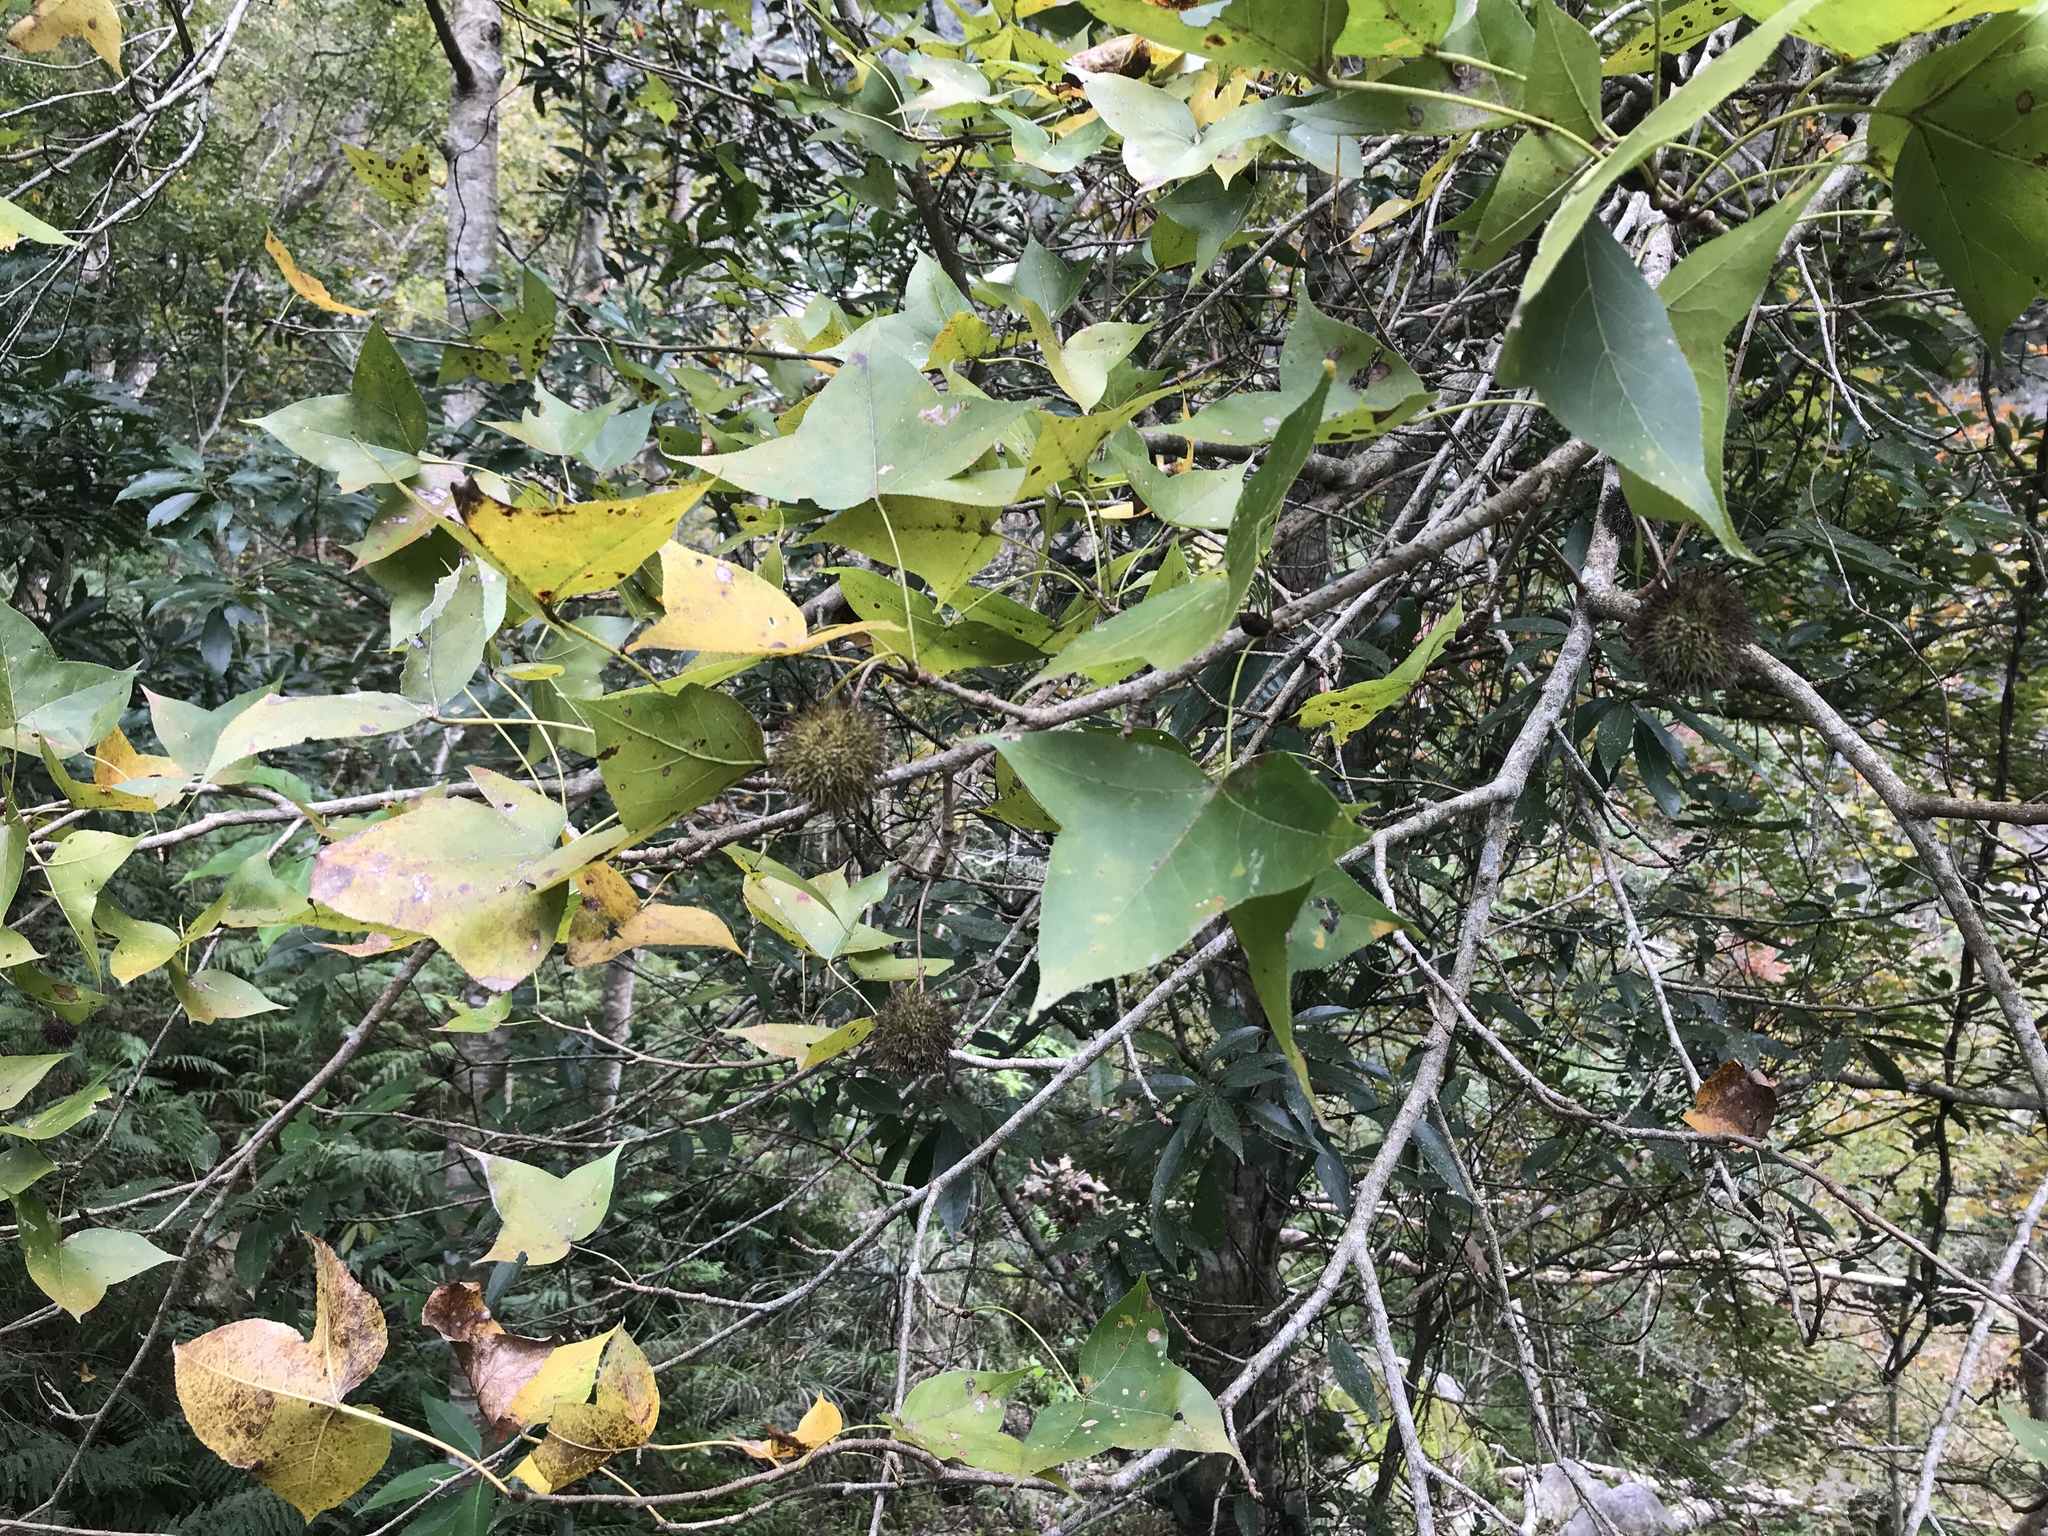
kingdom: Plantae
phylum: Tracheophyta
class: Magnoliopsida
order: Saxifragales
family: Altingiaceae
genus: Liquidambar
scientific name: Liquidambar formosana
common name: Chinese sweet gum
